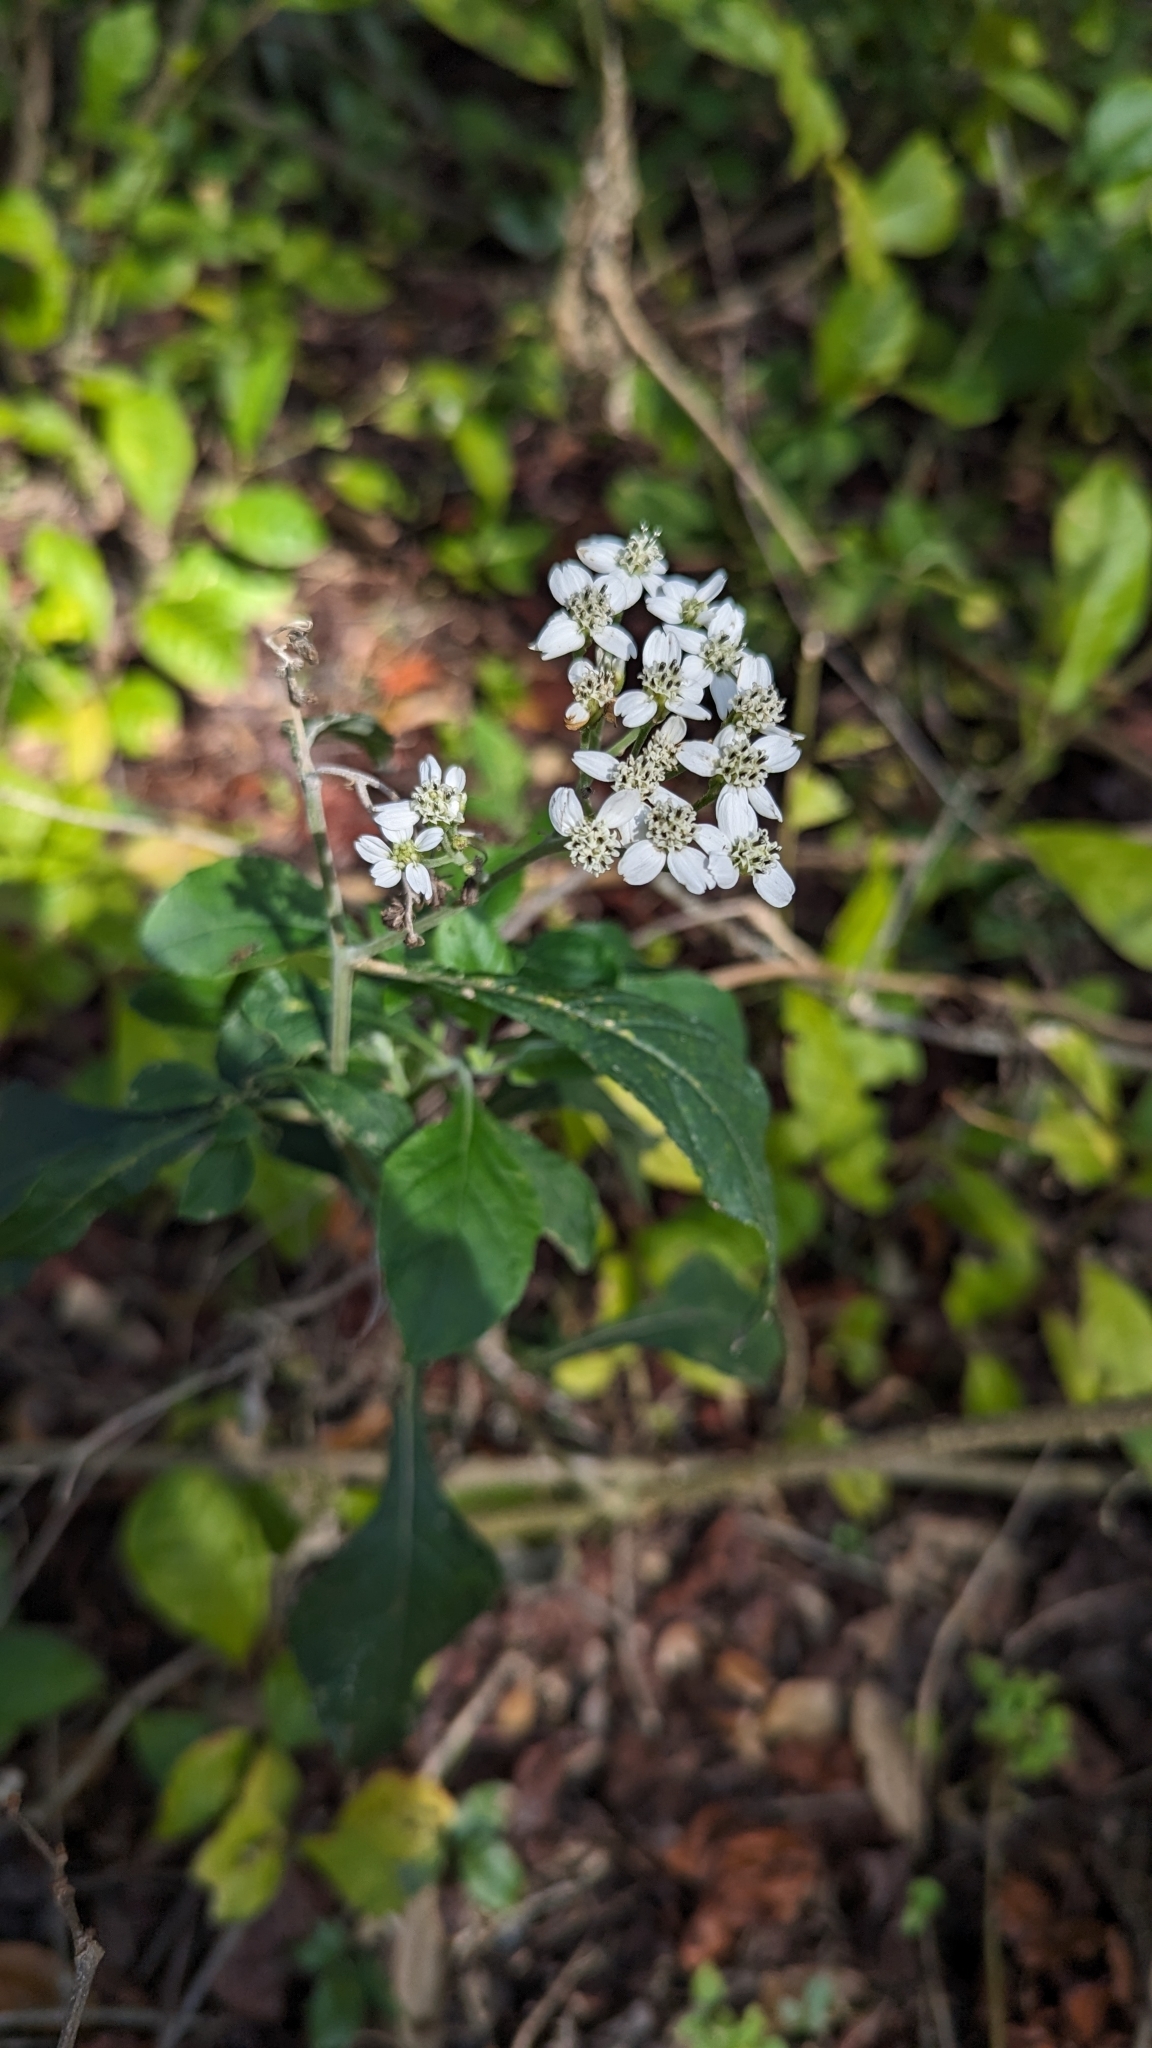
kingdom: Plantae
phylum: Tracheophyta
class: Magnoliopsida
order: Asterales
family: Asteraceae
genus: Verbesina
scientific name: Verbesina virginica
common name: Frostweed
